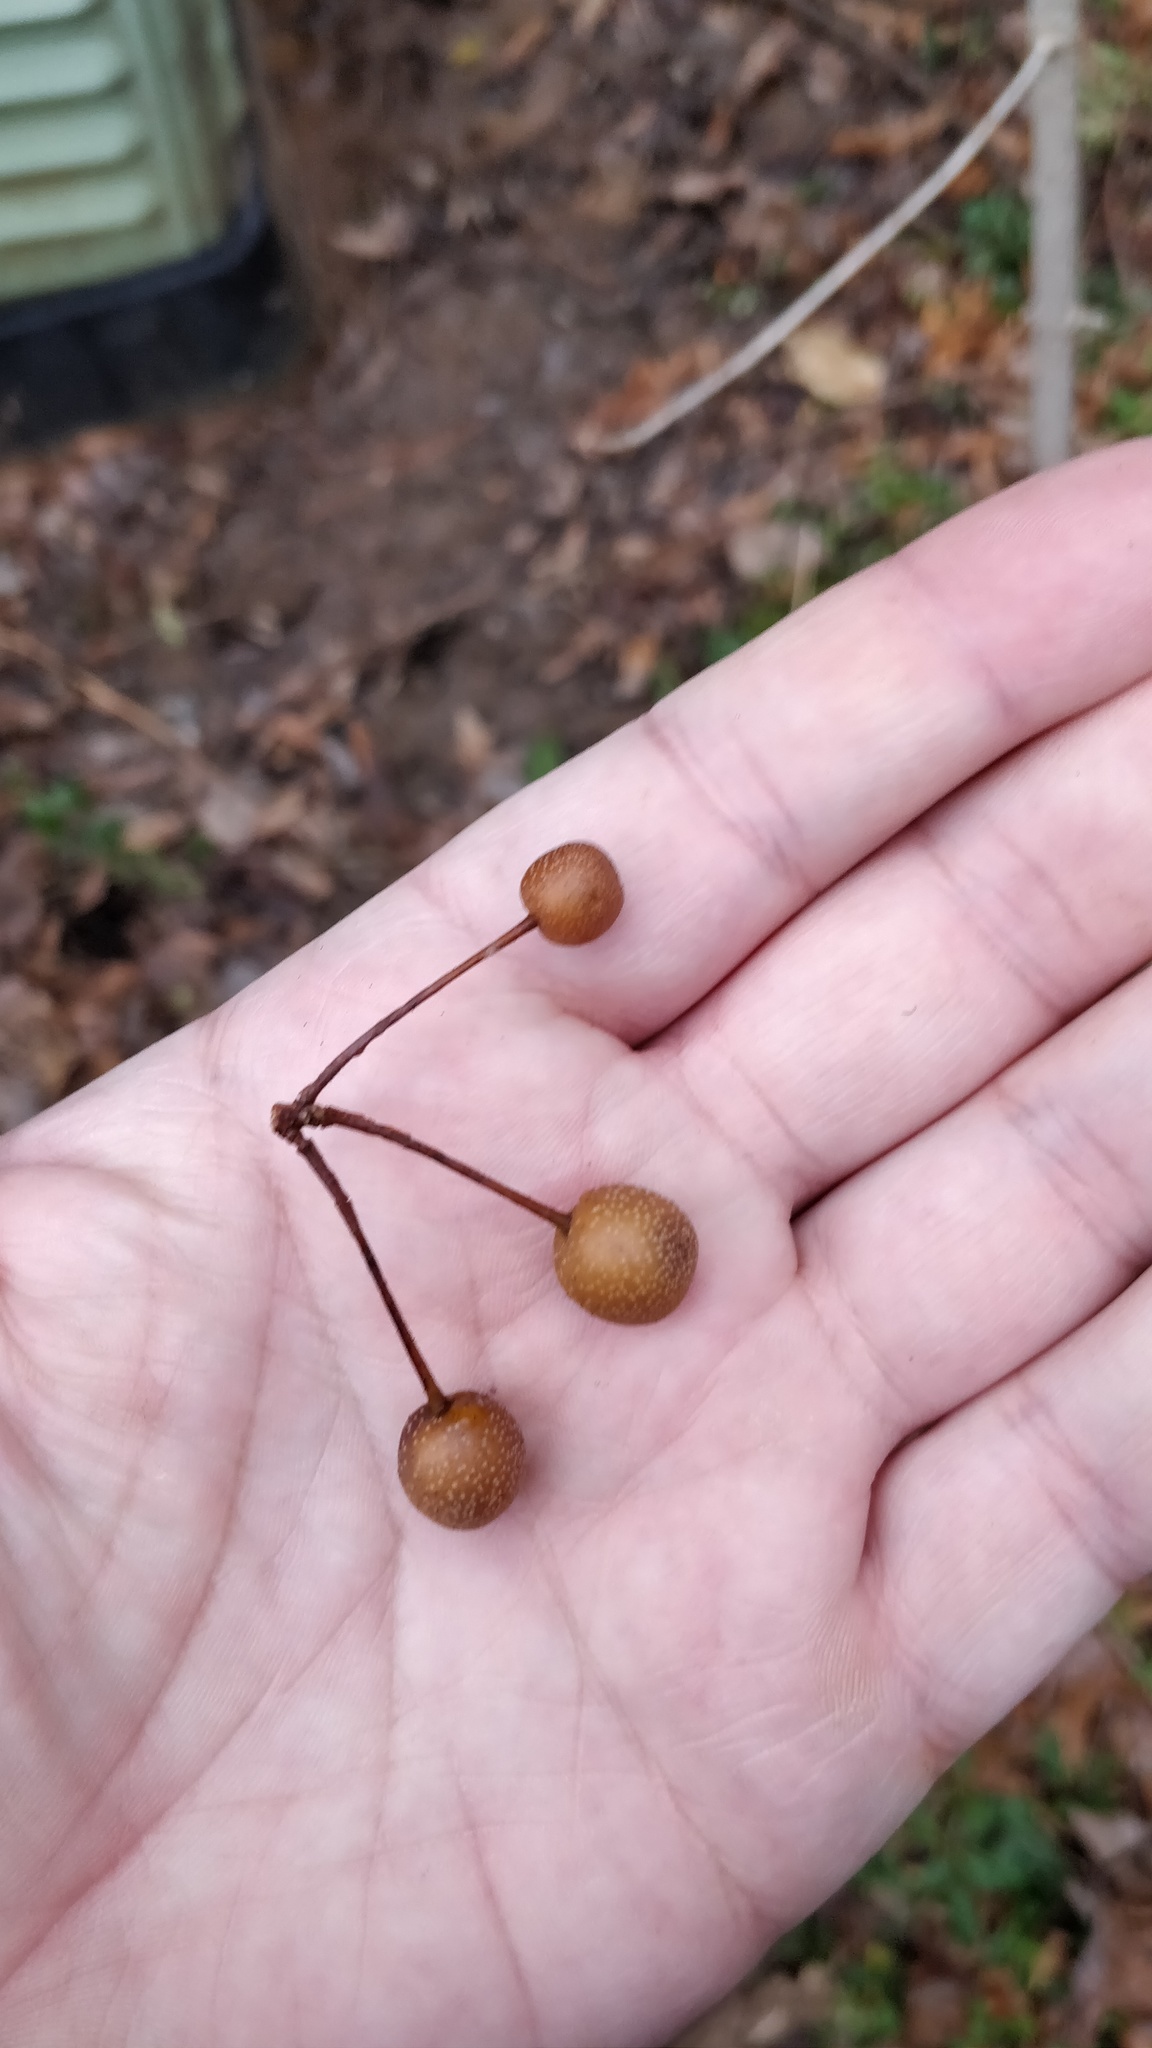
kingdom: Plantae
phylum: Tracheophyta
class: Magnoliopsida
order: Rosales
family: Rosaceae
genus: Pyrus
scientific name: Pyrus calleryana
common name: Callery pear
